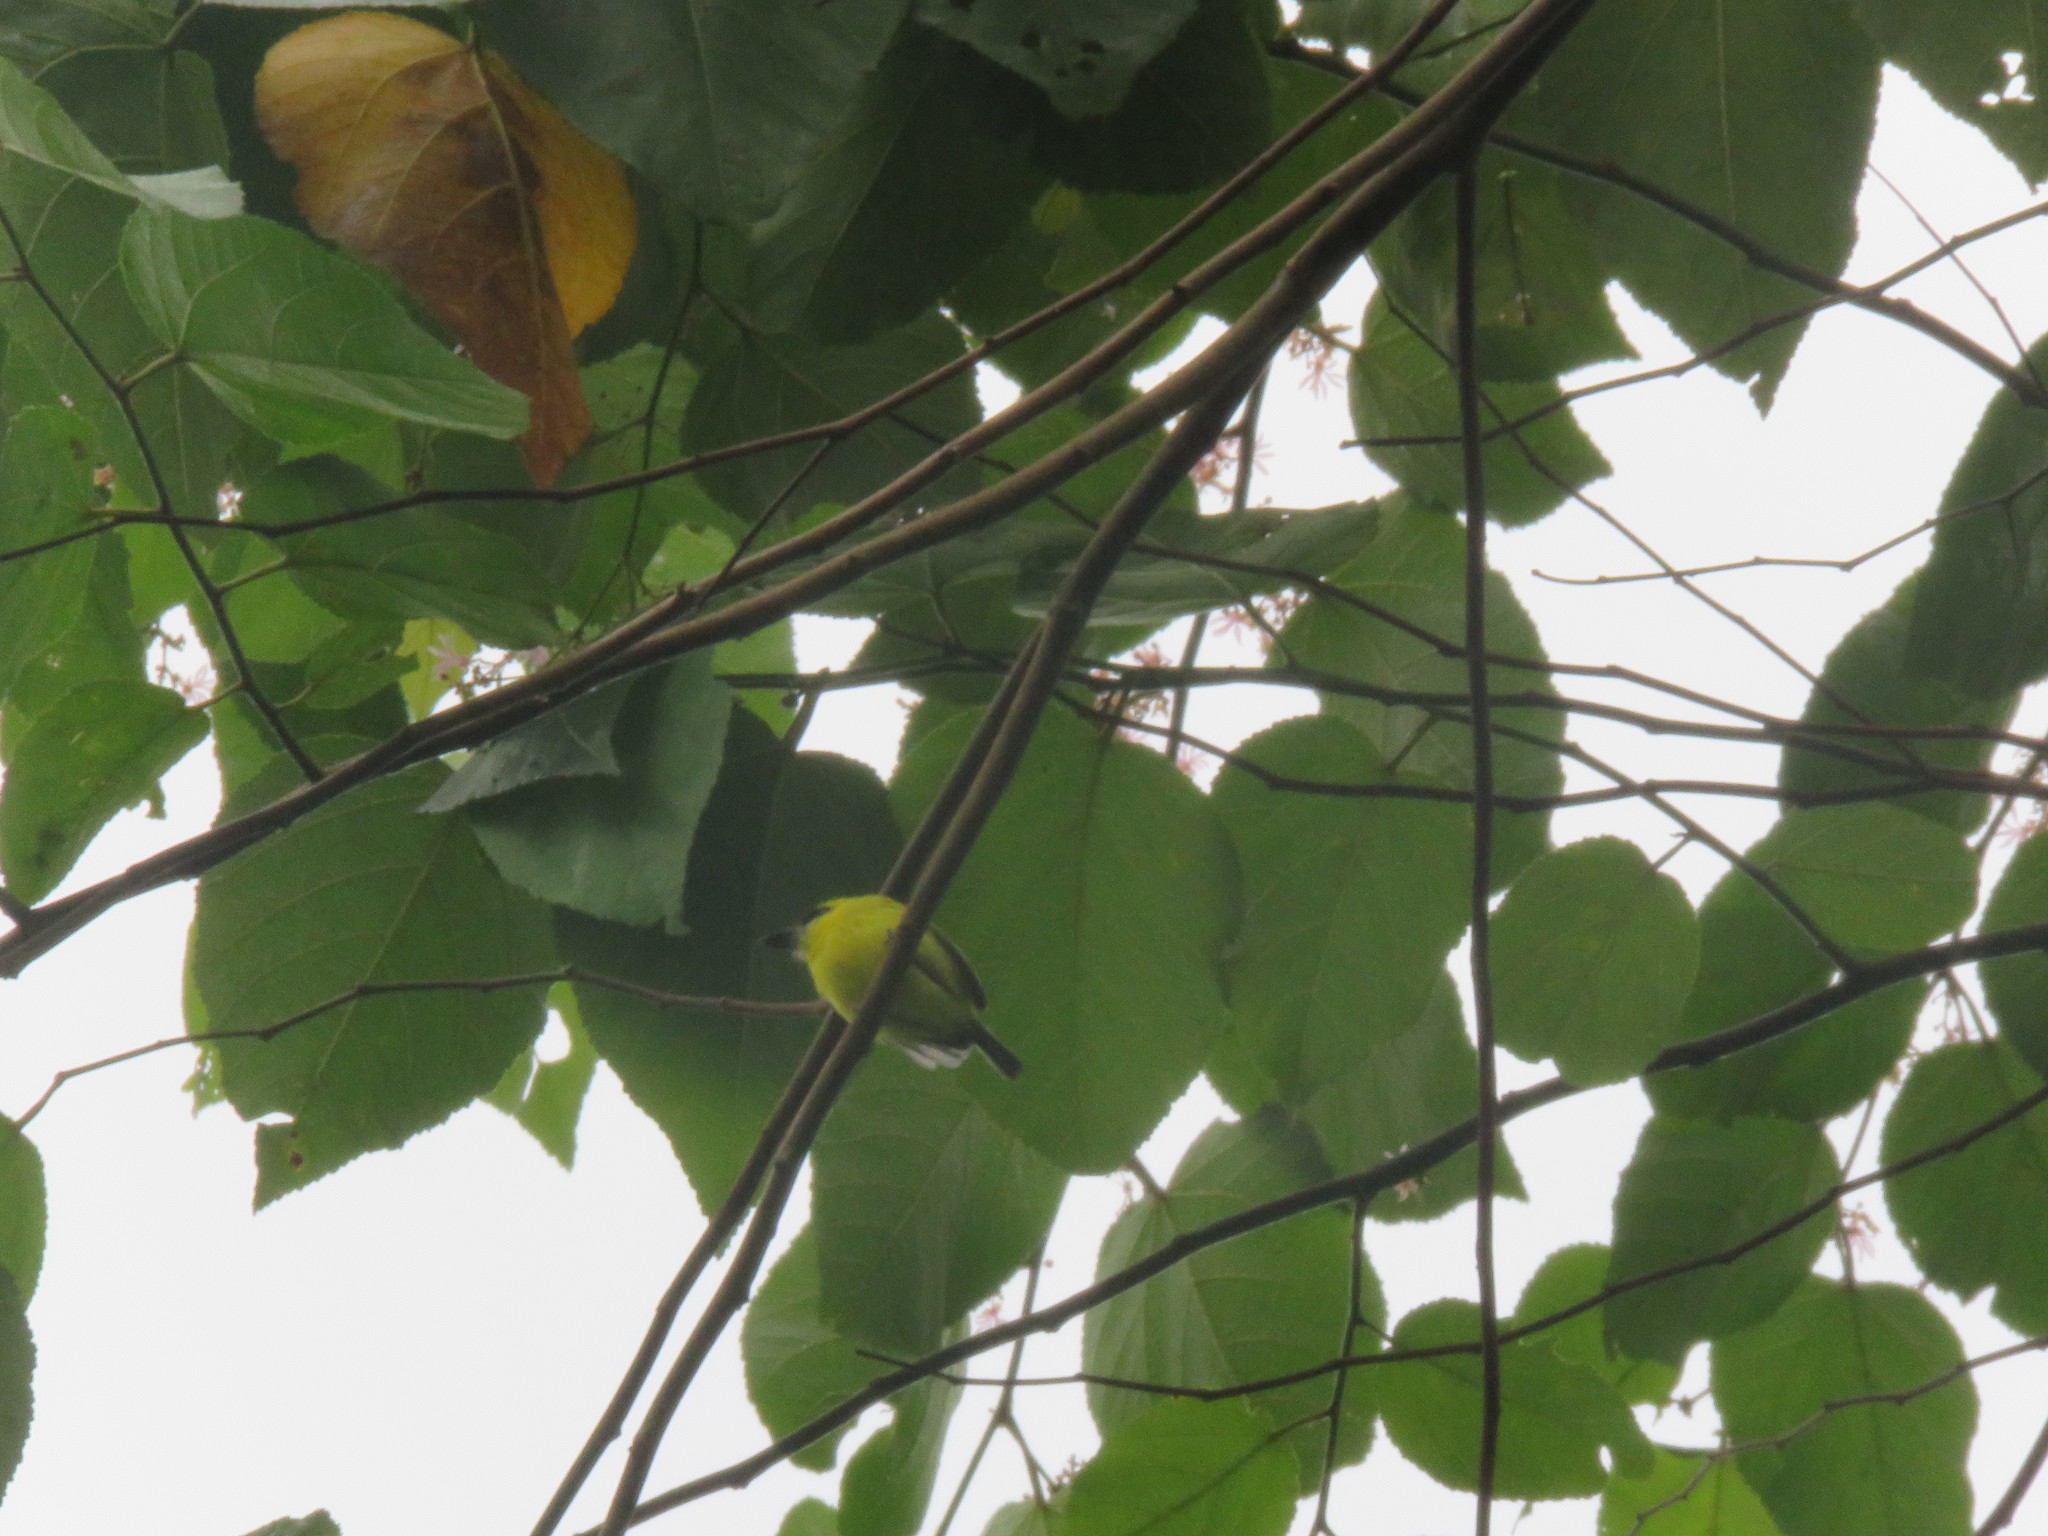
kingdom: Animalia
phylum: Chordata
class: Aves
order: Passeriformes
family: Tyrannidae
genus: Todirostrum
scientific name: Todirostrum chrysocrotaphum
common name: Yellow-browed tody-flycatcher
